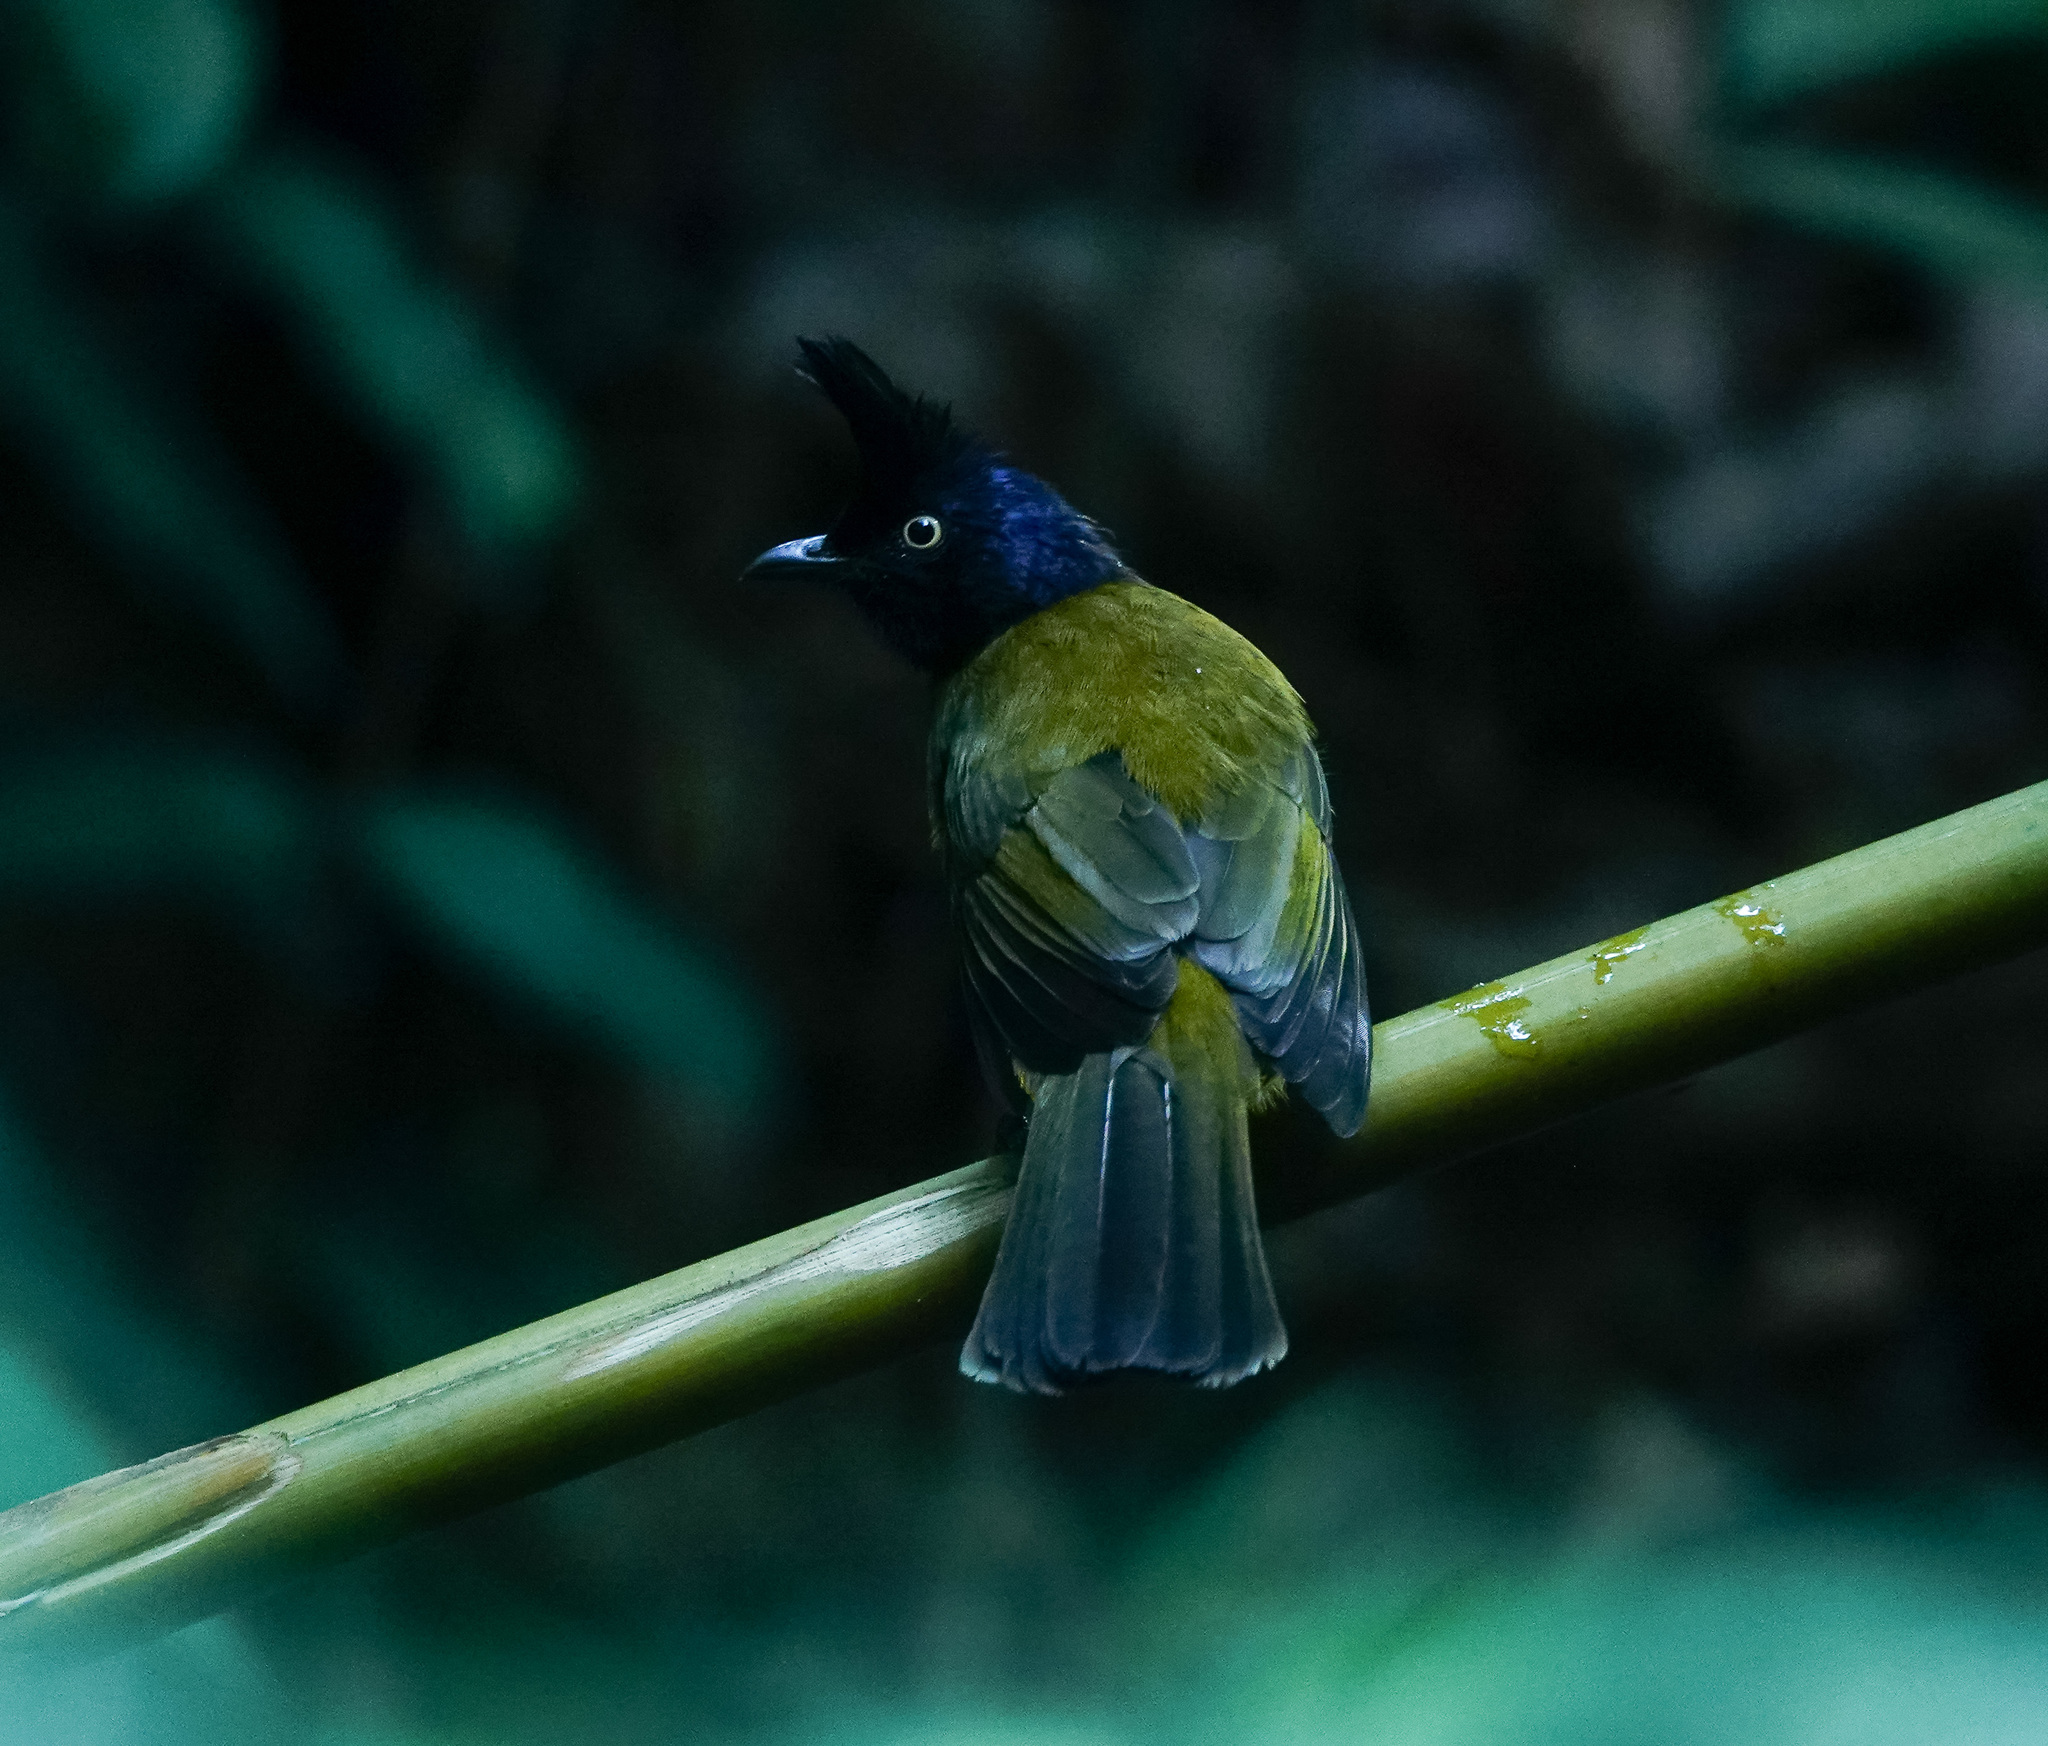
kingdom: Animalia
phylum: Chordata
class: Aves
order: Passeriformes
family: Pycnonotidae
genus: Pycnonotus
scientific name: Pycnonotus flaviventris
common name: Black-crested bulbul
